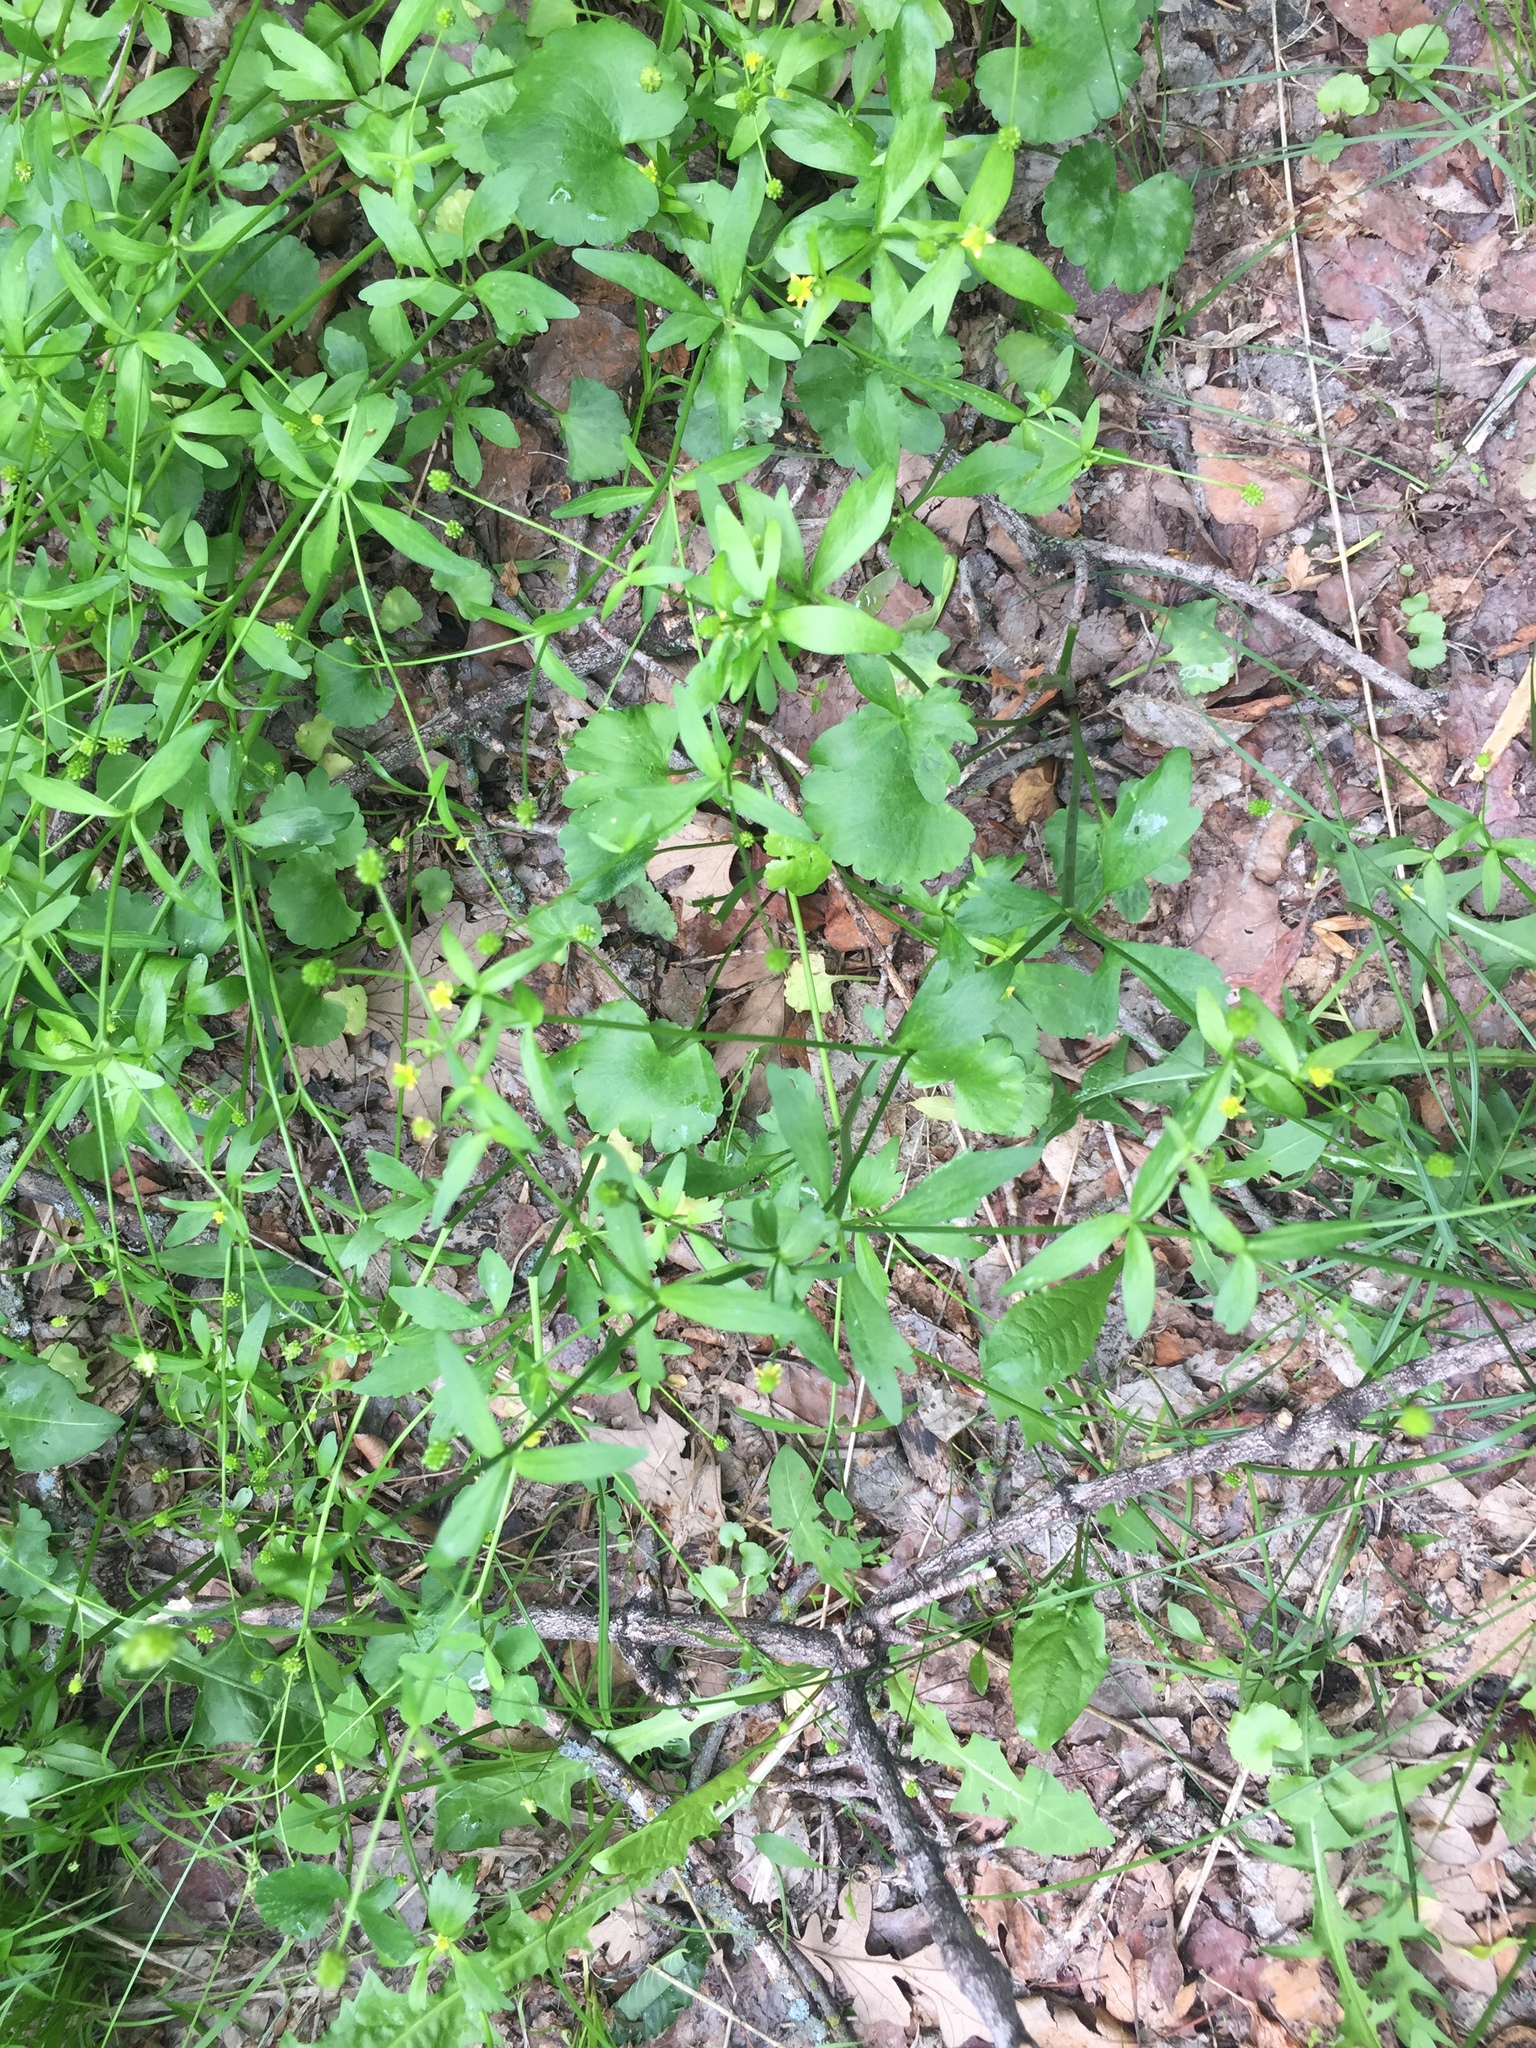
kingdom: Plantae
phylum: Tracheophyta
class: Magnoliopsida
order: Ranunculales
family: Ranunculaceae
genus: Ranunculus
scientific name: Ranunculus abortivus
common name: Early wood buttercup
